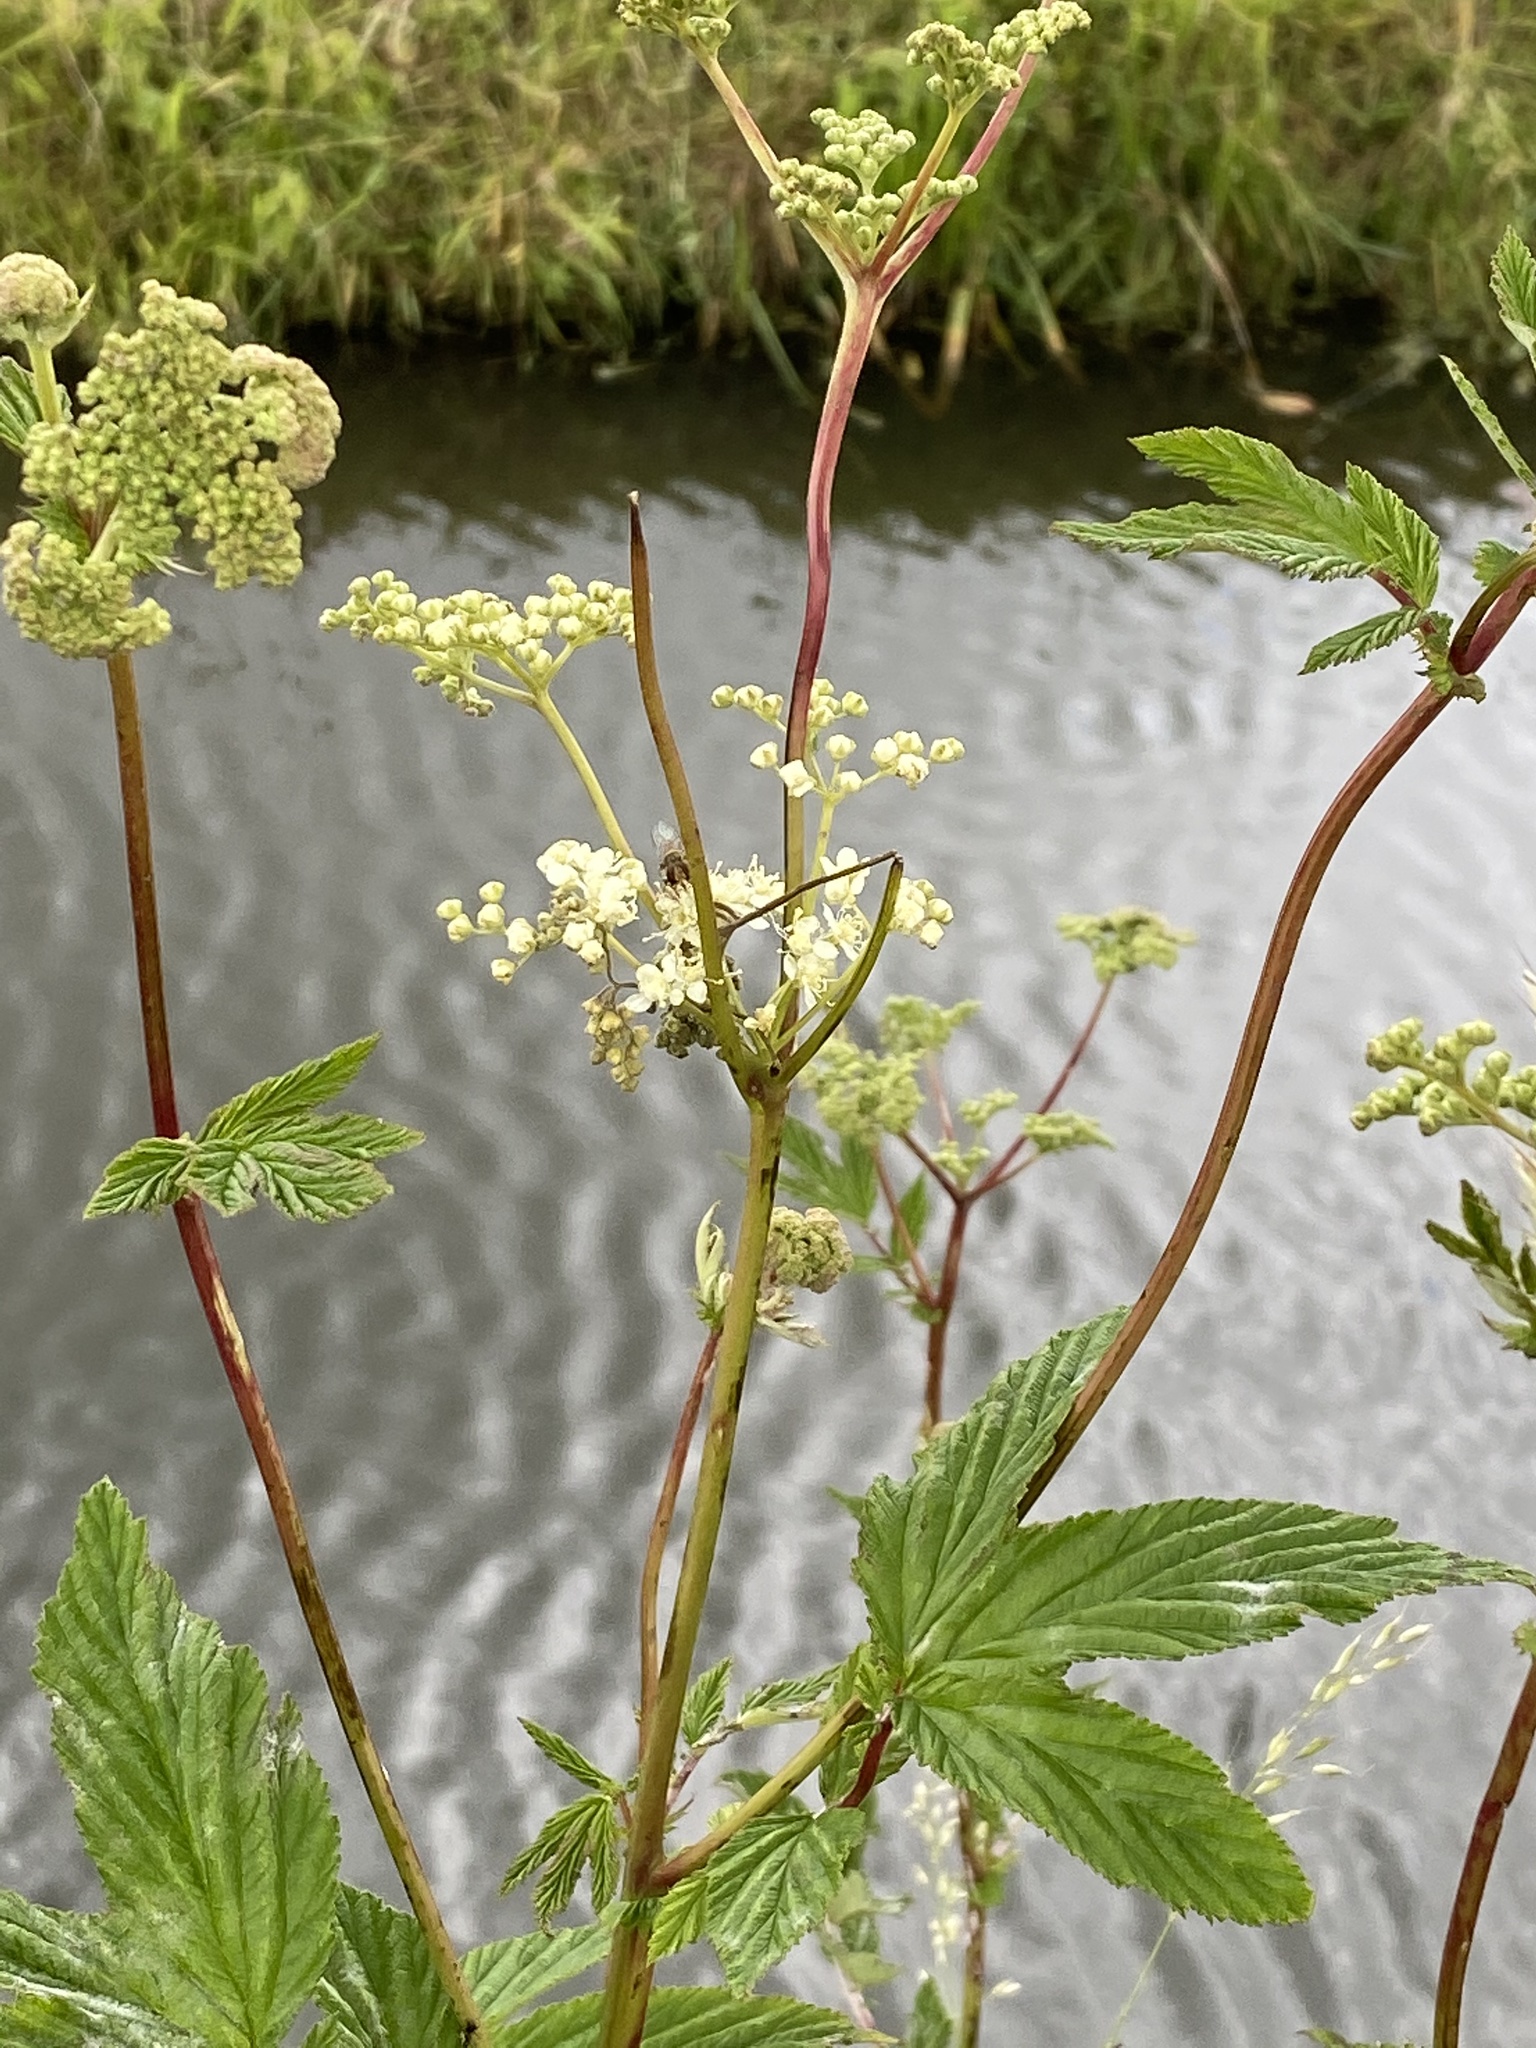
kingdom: Plantae
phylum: Tracheophyta
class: Magnoliopsida
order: Rosales
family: Rosaceae
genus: Filipendula
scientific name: Filipendula ulmaria
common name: Meadowsweet
